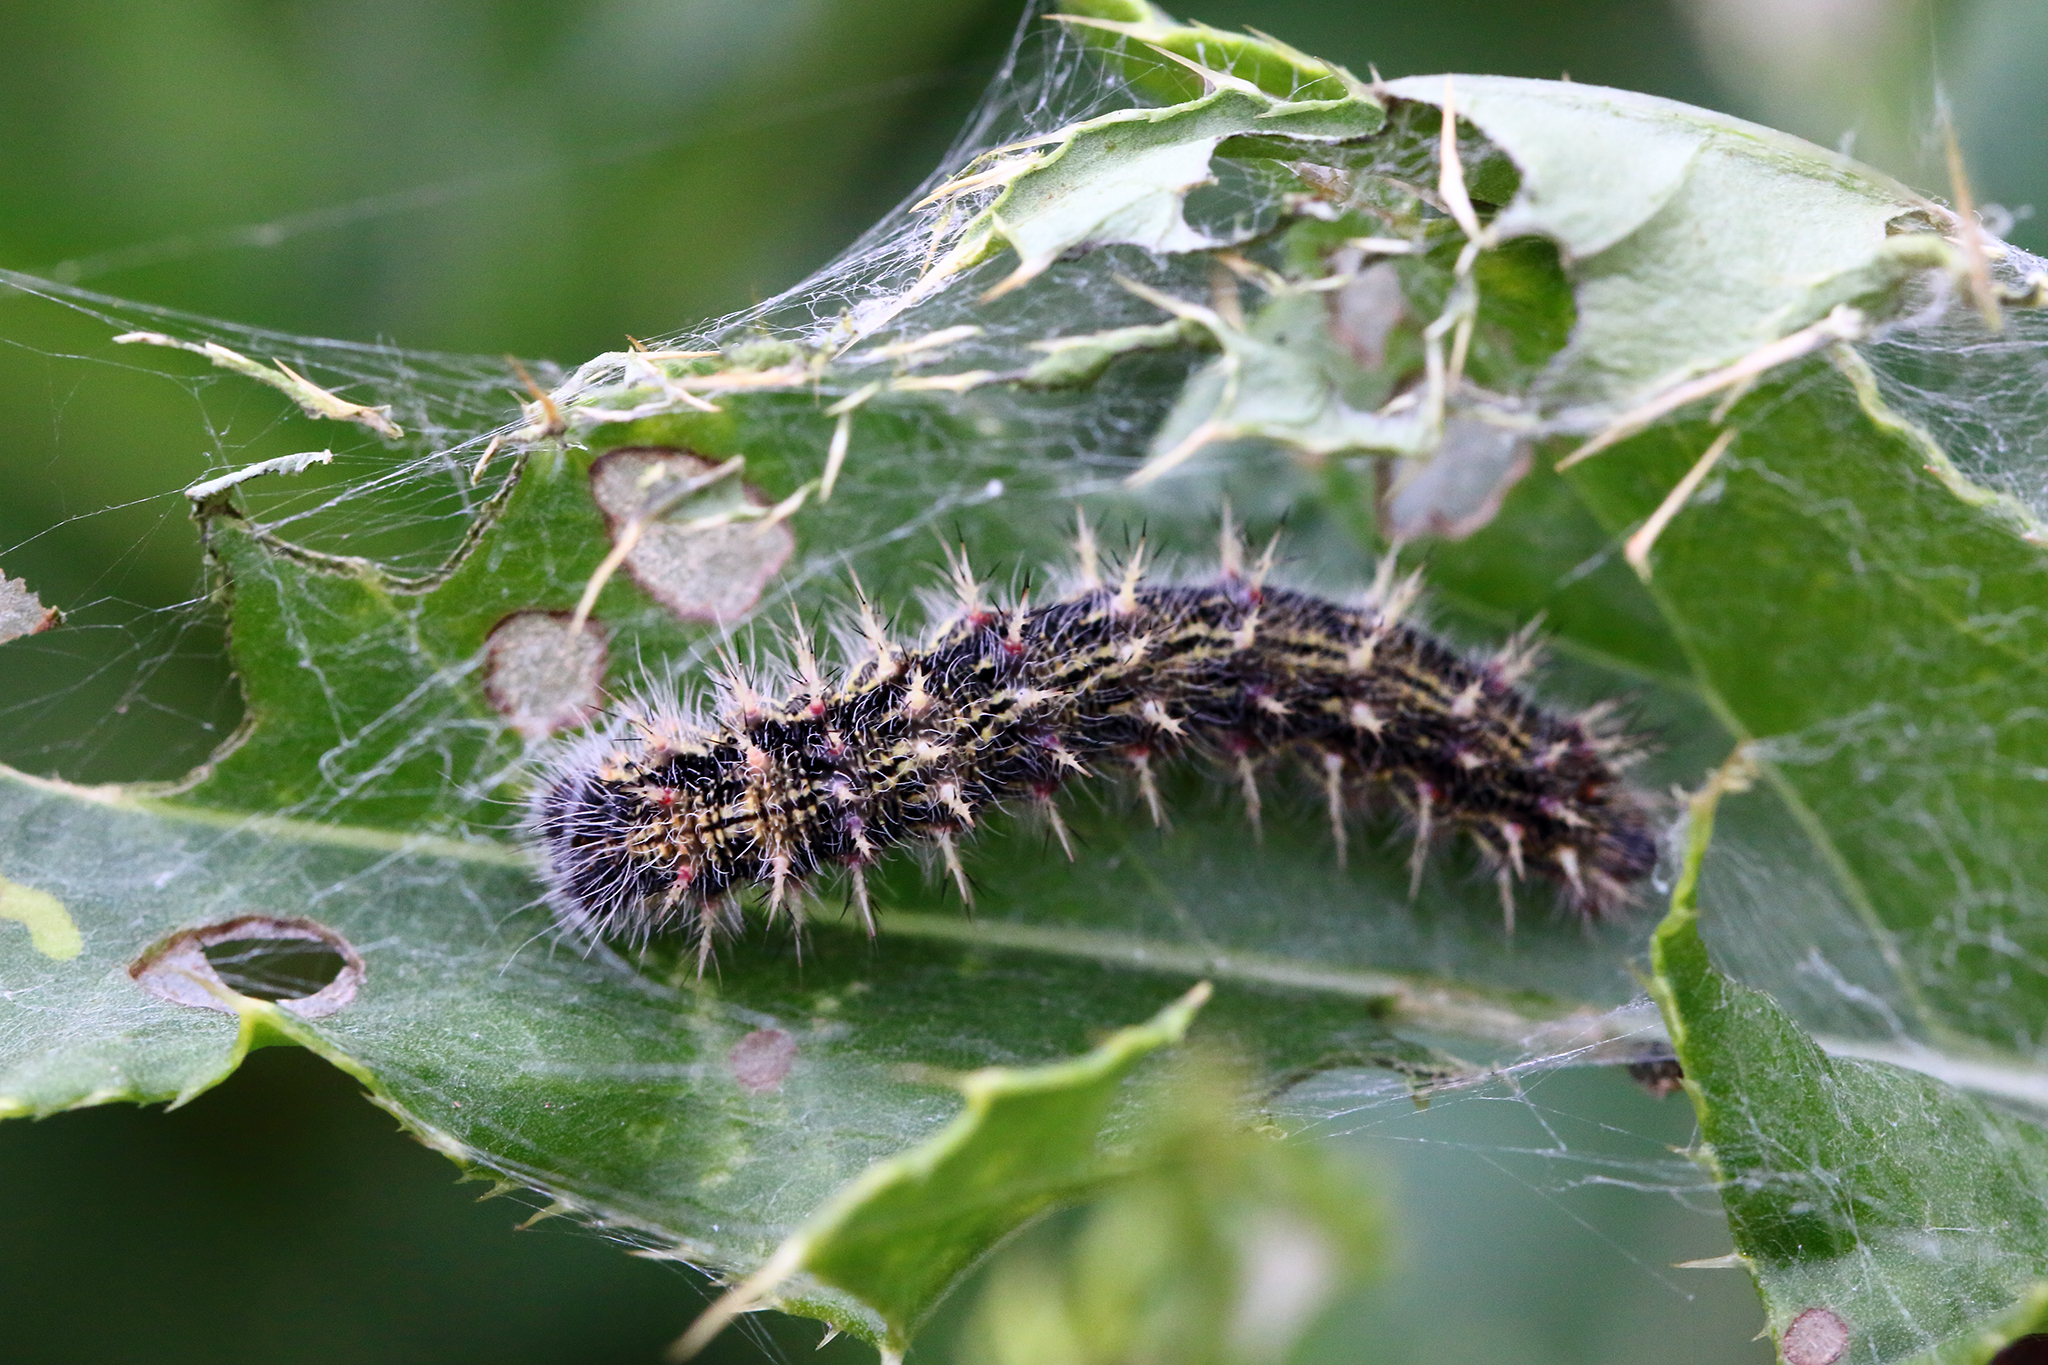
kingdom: Animalia
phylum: Arthropoda
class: Insecta
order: Lepidoptera
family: Nymphalidae
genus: Vanessa
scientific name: Vanessa cardui
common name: Painted lady
